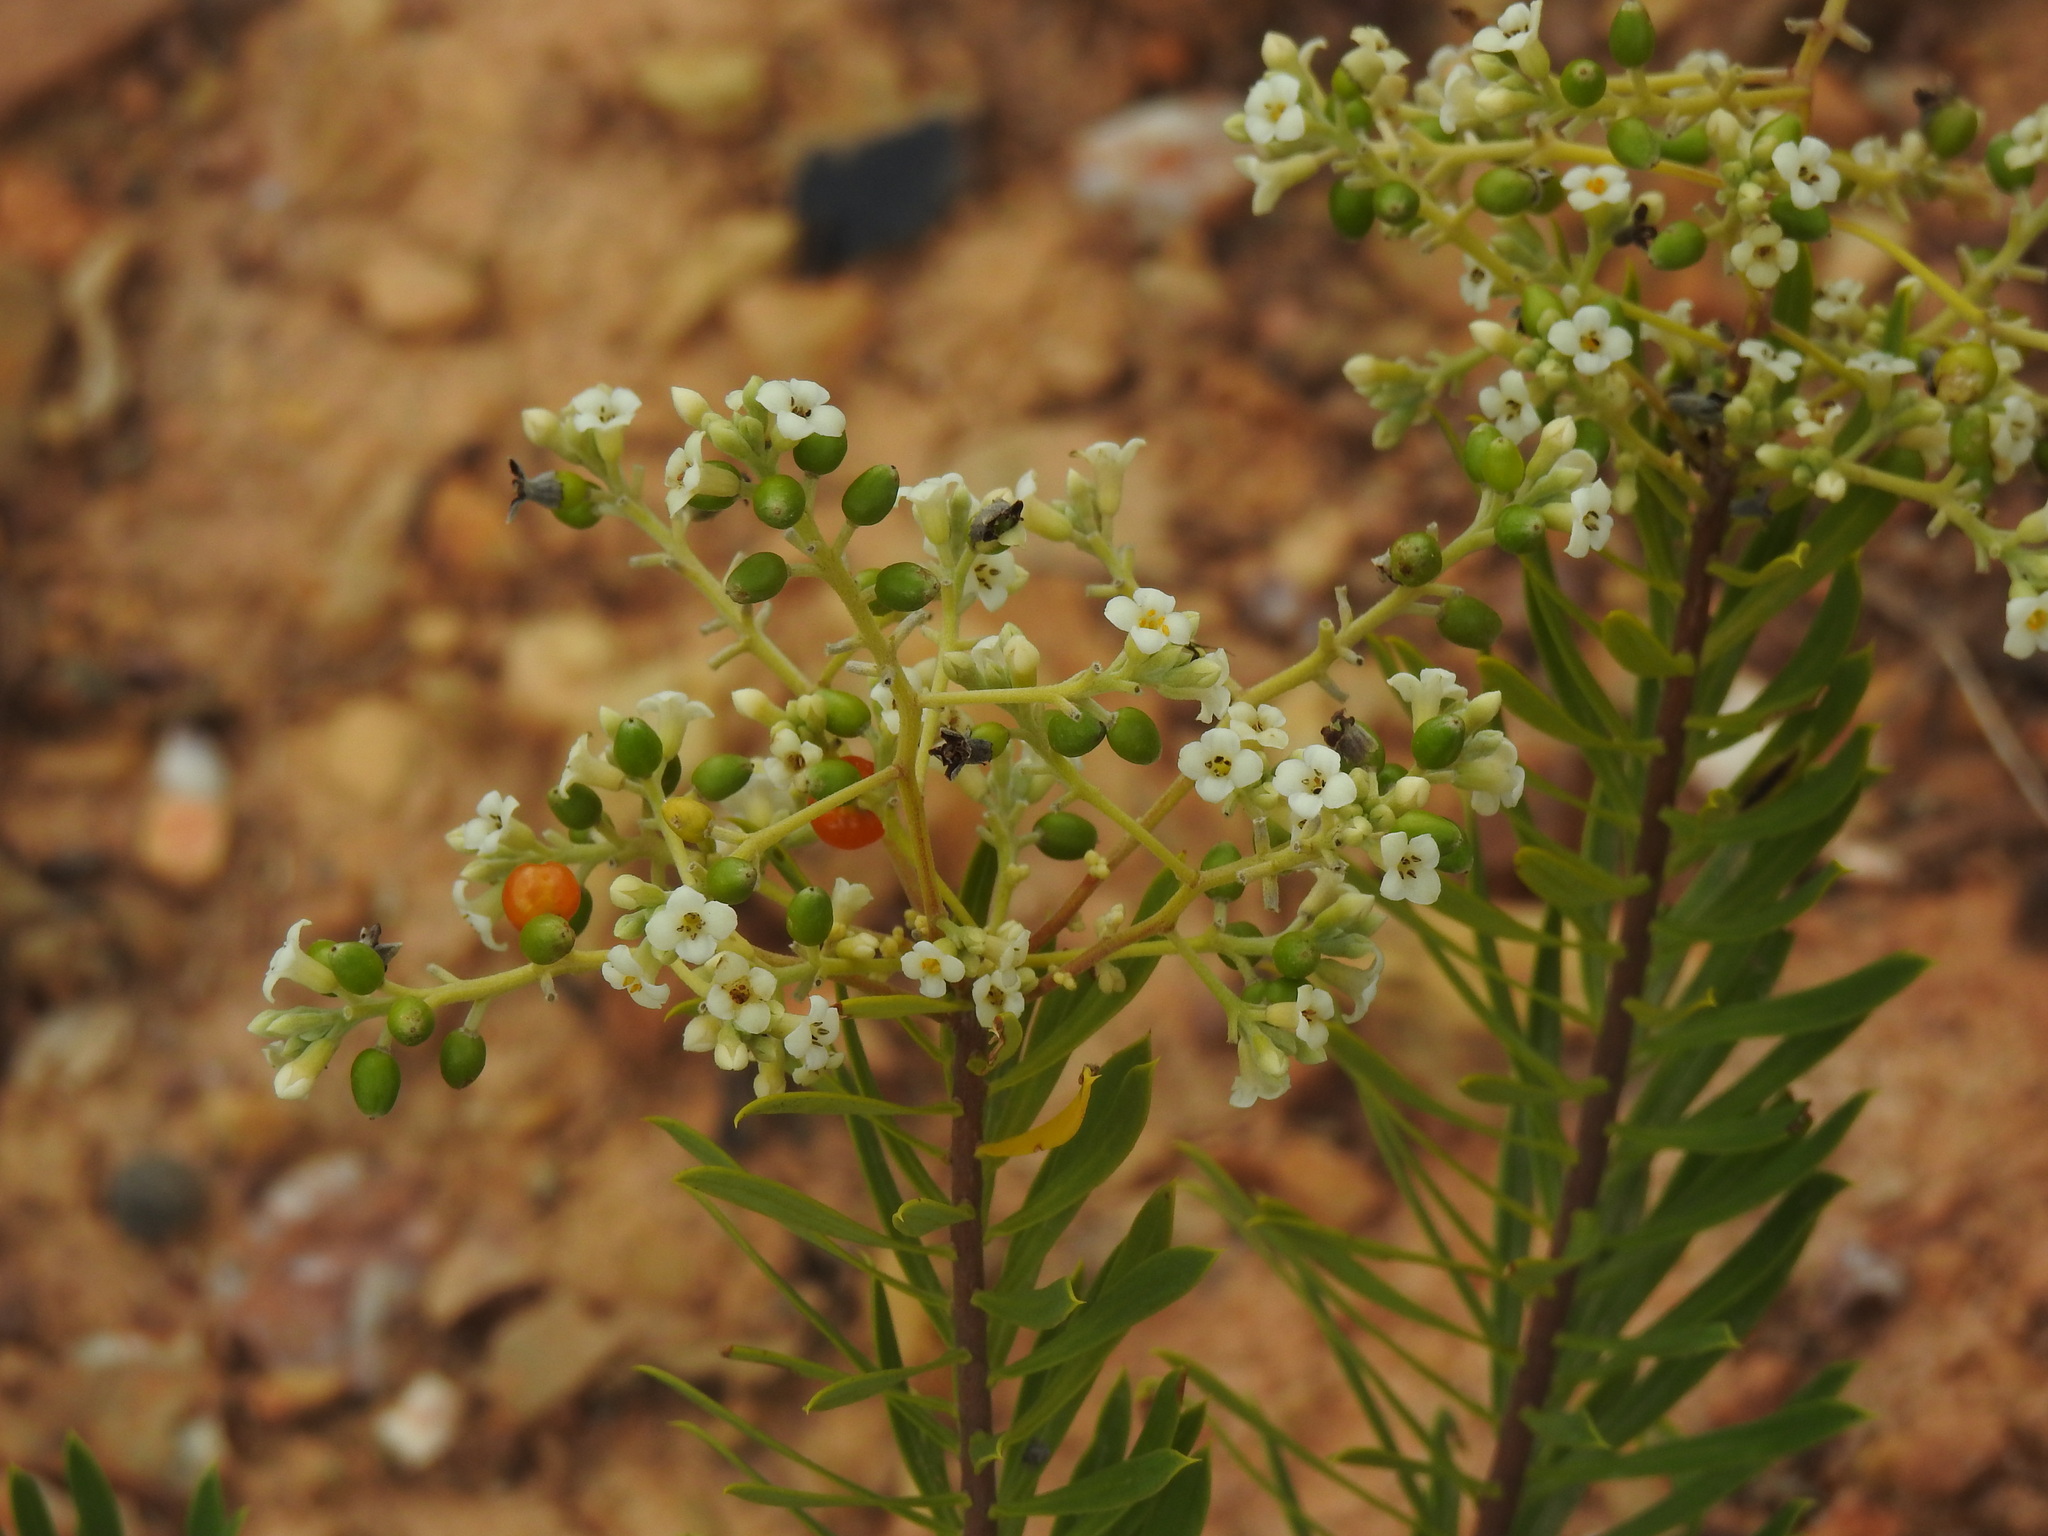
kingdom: Plantae
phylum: Tracheophyta
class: Magnoliopsida
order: Malvales
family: Thymelaeaceae
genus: Daphne
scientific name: Daphne gnidium
